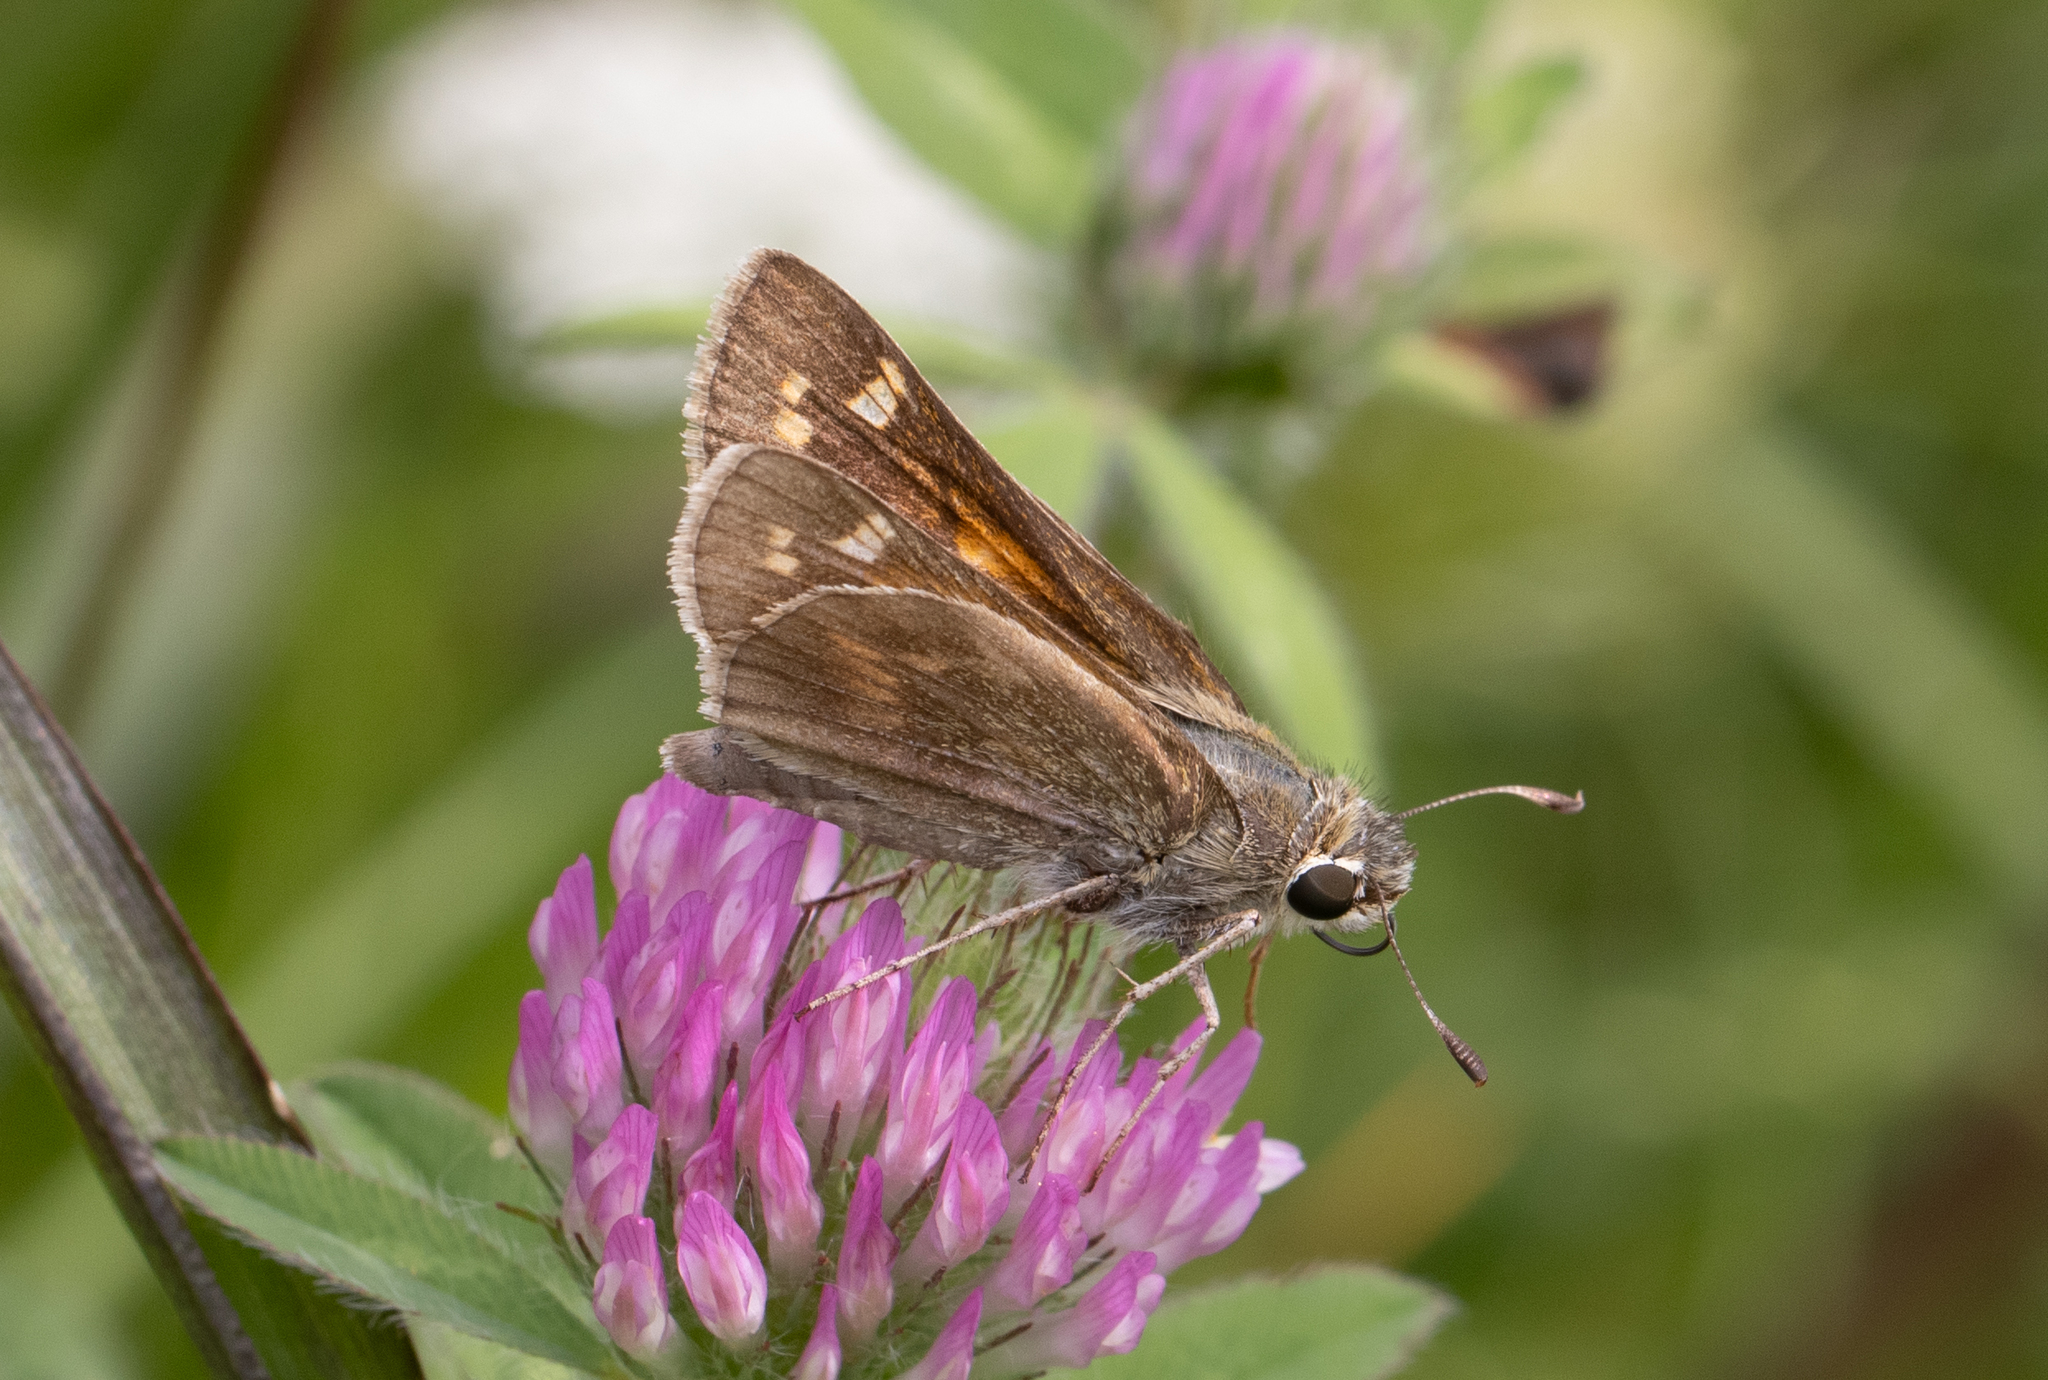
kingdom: Animalia
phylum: Arthropoda
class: Insecta
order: Lepidoptera
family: Hesperiidae
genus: Atalopedes
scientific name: Atalopedes
